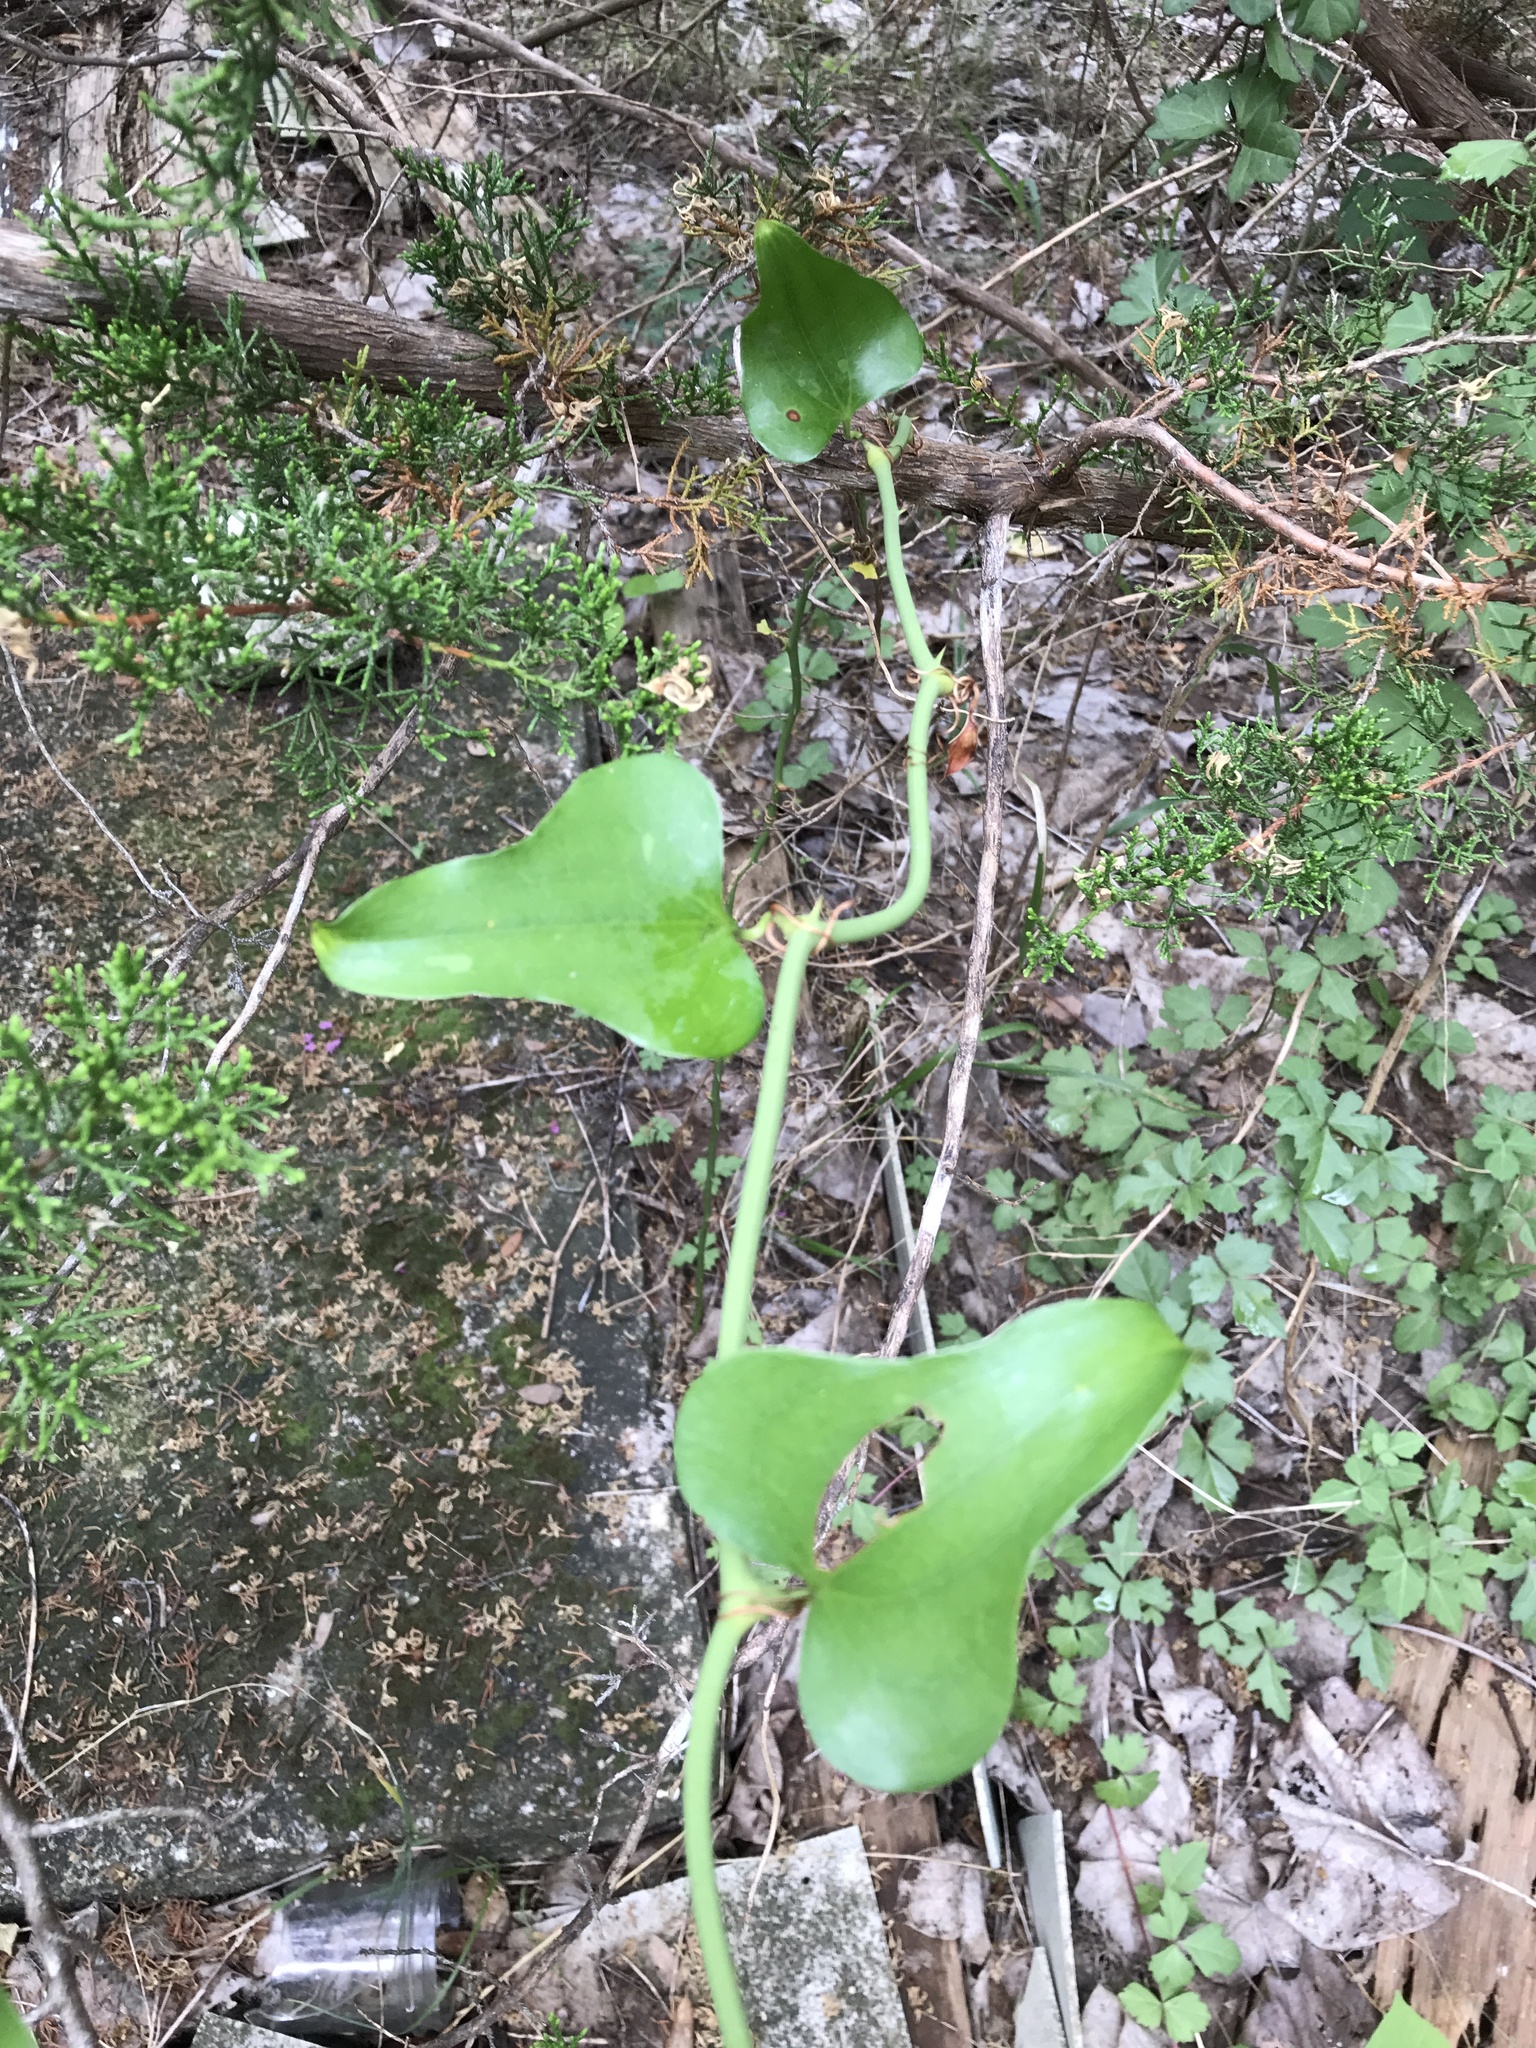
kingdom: Plantae
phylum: Tracheophyta
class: Liliopsida
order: Liliales
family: Smilacaceae
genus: Smilax
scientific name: Smilax bona-nox
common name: Catbrier
